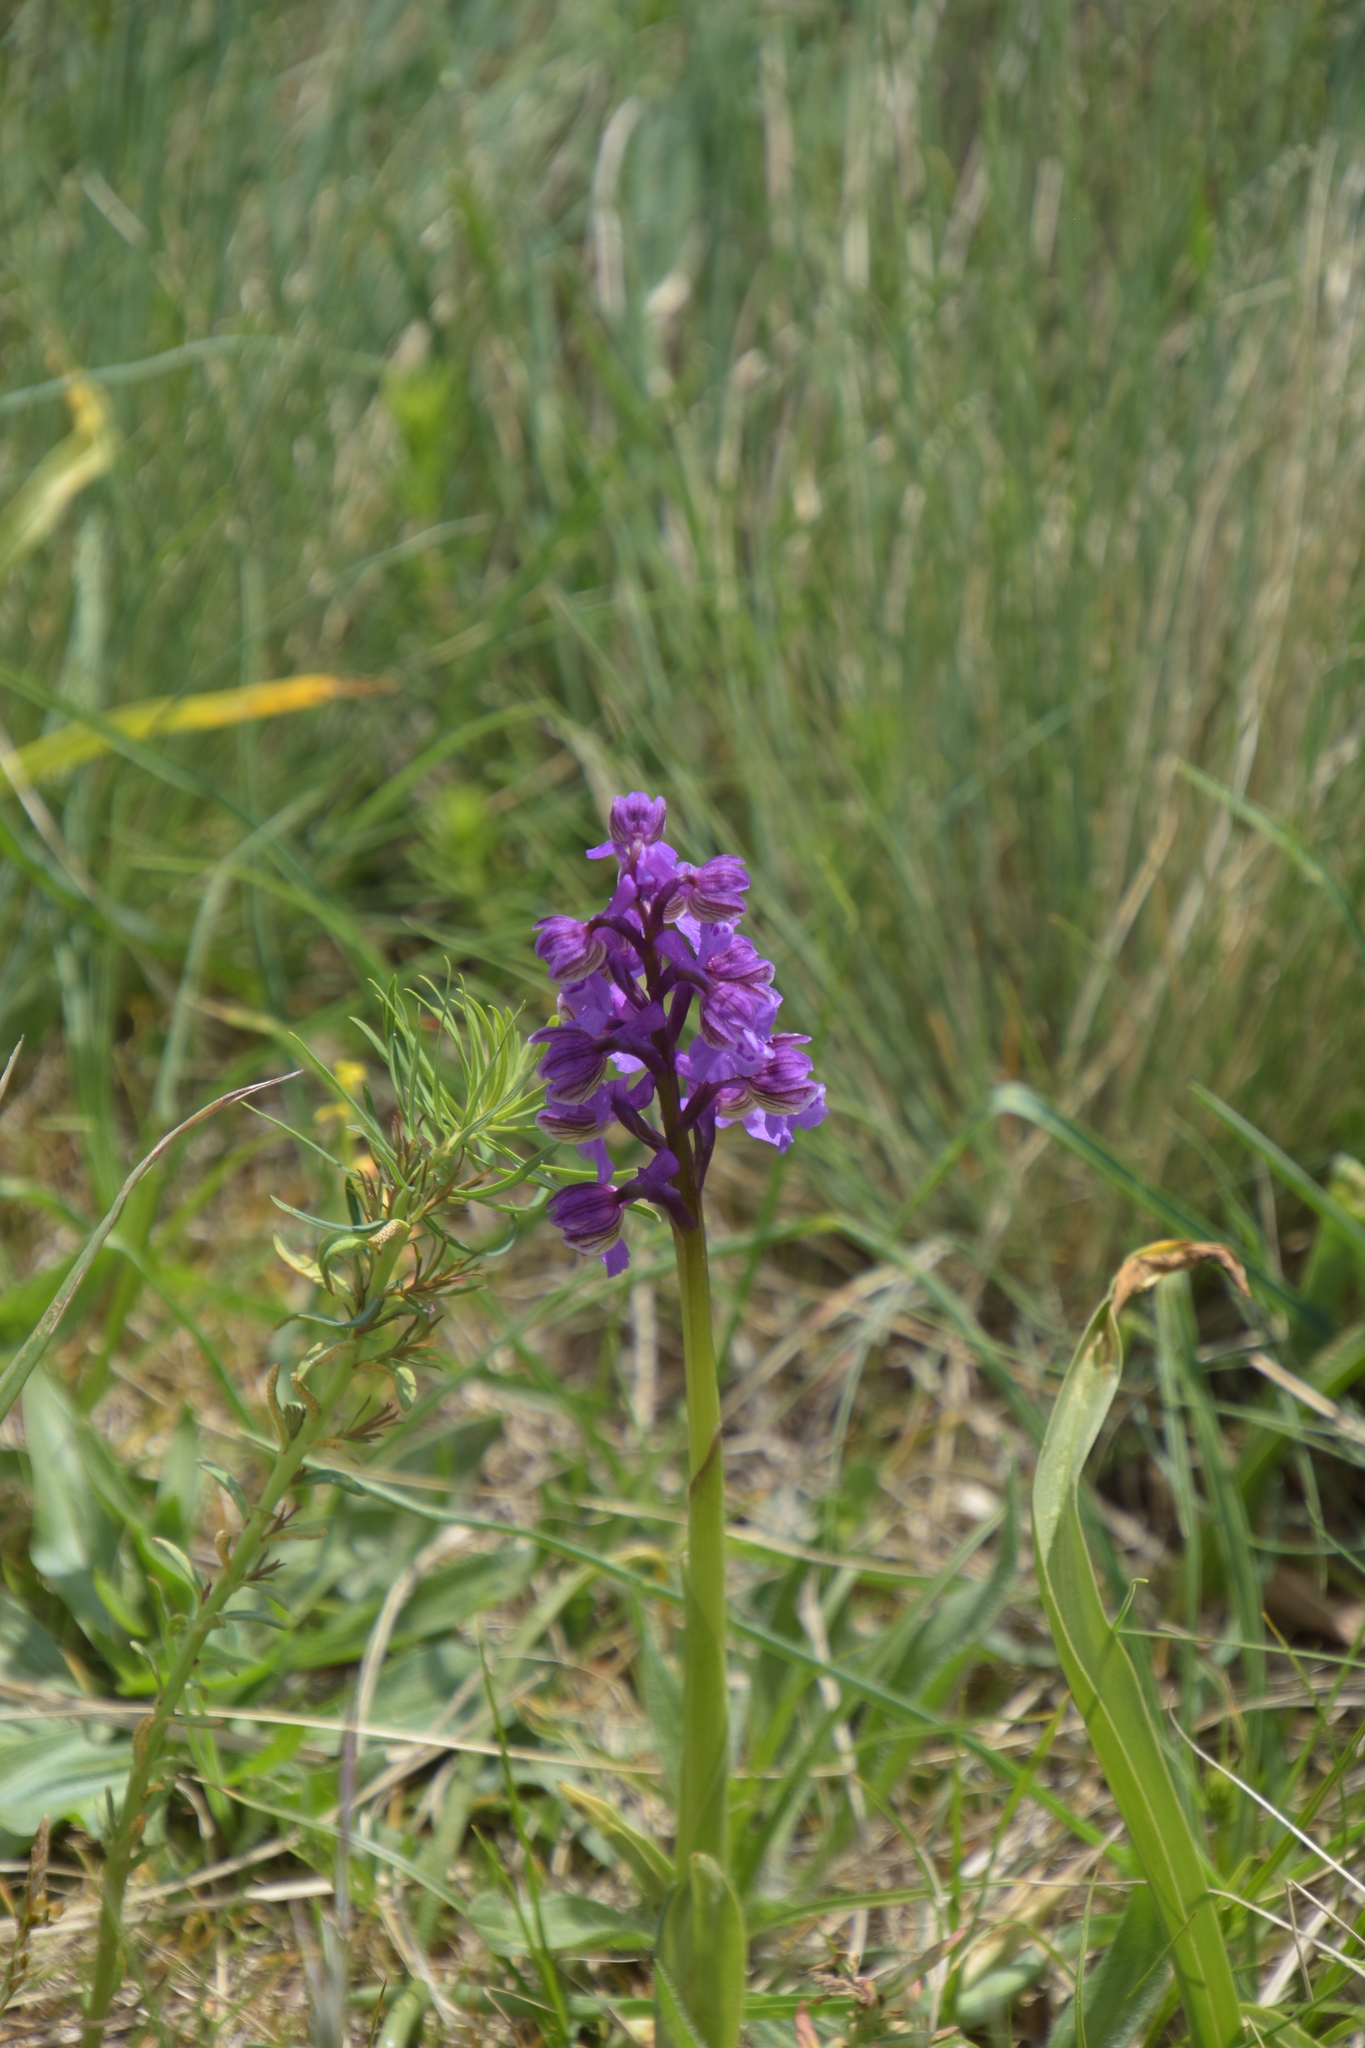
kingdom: Plantae
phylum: Tracheophyta
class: Liliopsida
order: Asparagales
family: Orchidaceae
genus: Anacamptis
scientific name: Anacamptis morio
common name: Green-winged orchid
